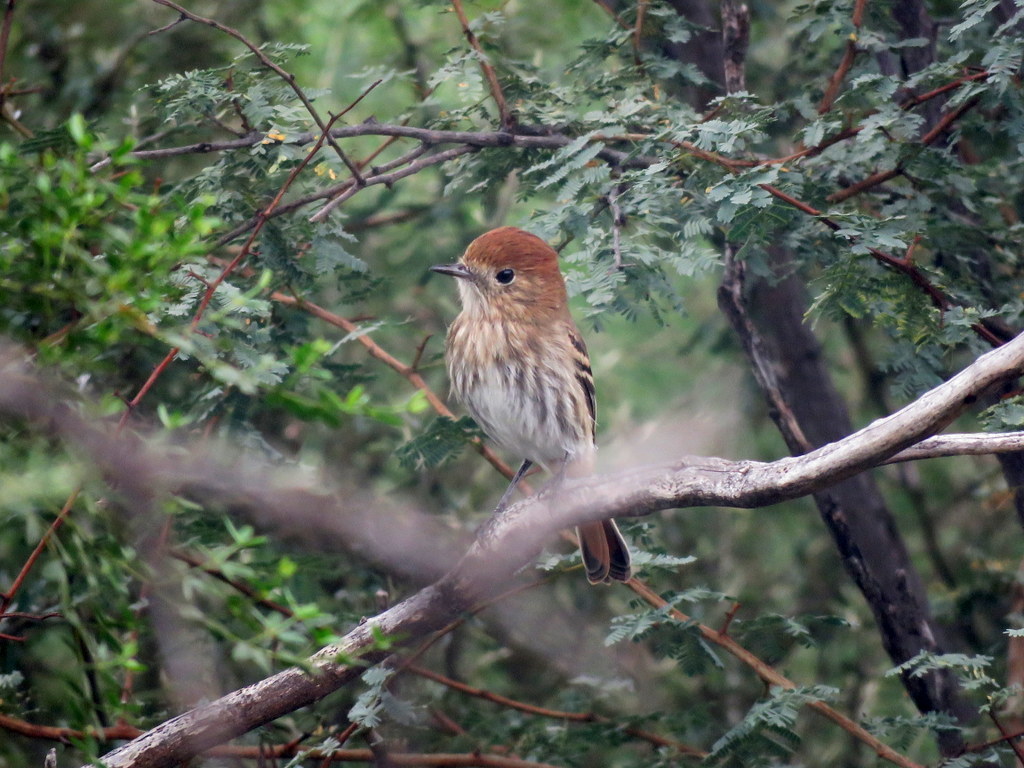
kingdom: Animalia
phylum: Chordata
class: Aves
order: Passeriformes
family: Tyrannidae
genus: Knipolegus
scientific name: Knipolegus striaticeps
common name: Cinereous tyrant
